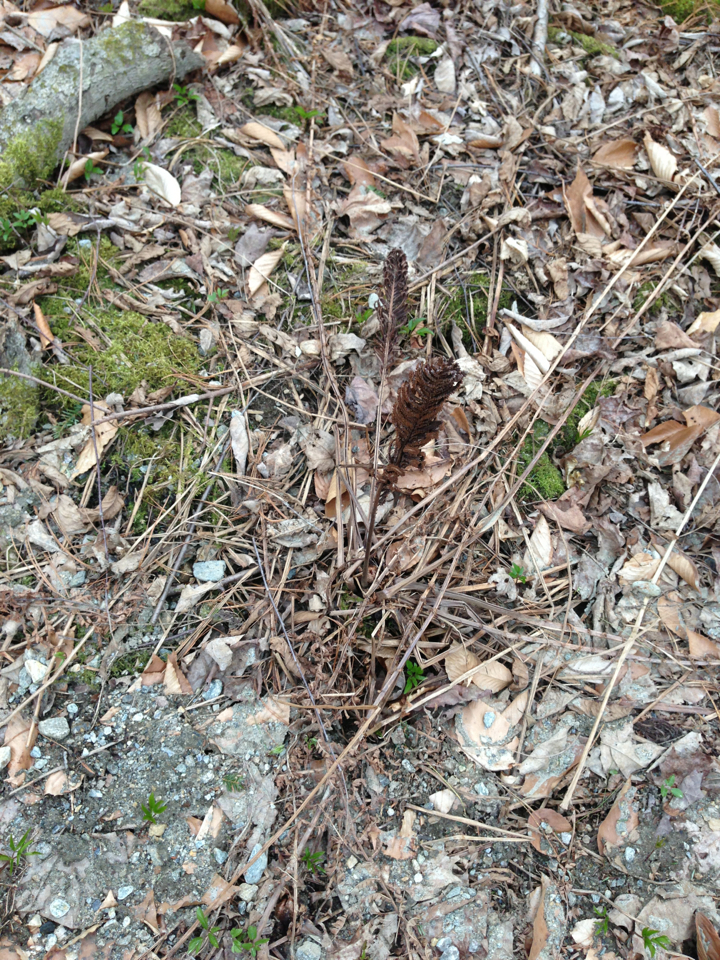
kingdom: Plantae
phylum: Tracheophyta
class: Polypodiopsida
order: Polypodiales
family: Onocleaceae
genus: Matteuccia
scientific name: Matteuccia struthiopteris
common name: Ostrich fern
